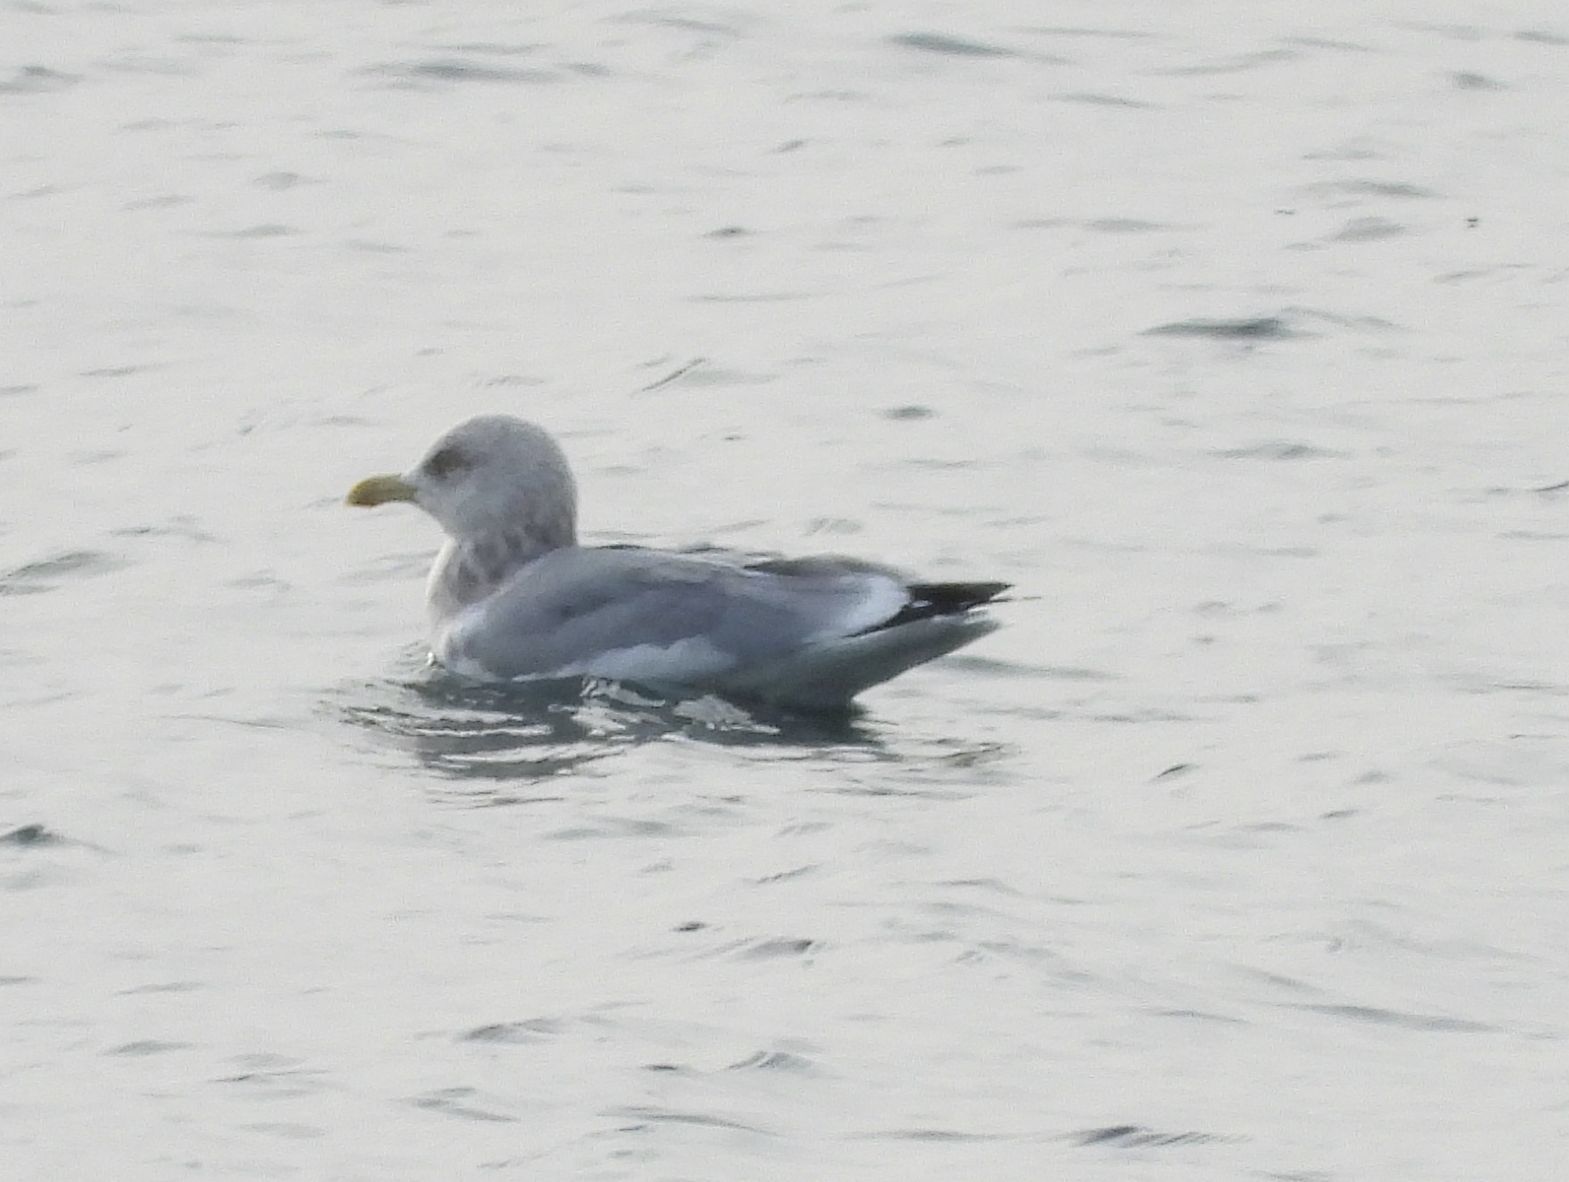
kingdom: Animalia
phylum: Chordata
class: Aves
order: Charadriiformes
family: Laridae
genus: Larus
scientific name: Larus argentatus
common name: Herring gull
